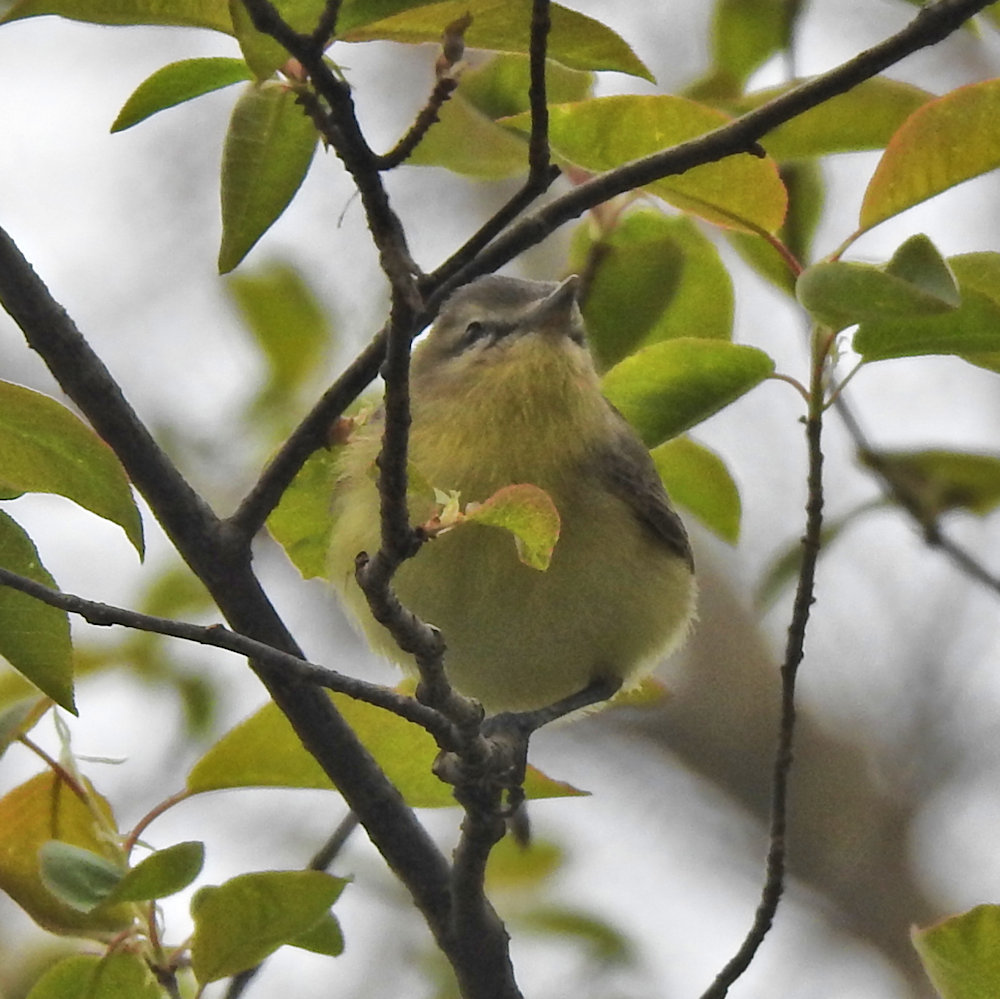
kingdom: Animalia
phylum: Chordata
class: Aves
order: Passeriformes
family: Vireonidae
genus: Vireo
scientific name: Vireo philadelphicus
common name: Philadelphia vireo
